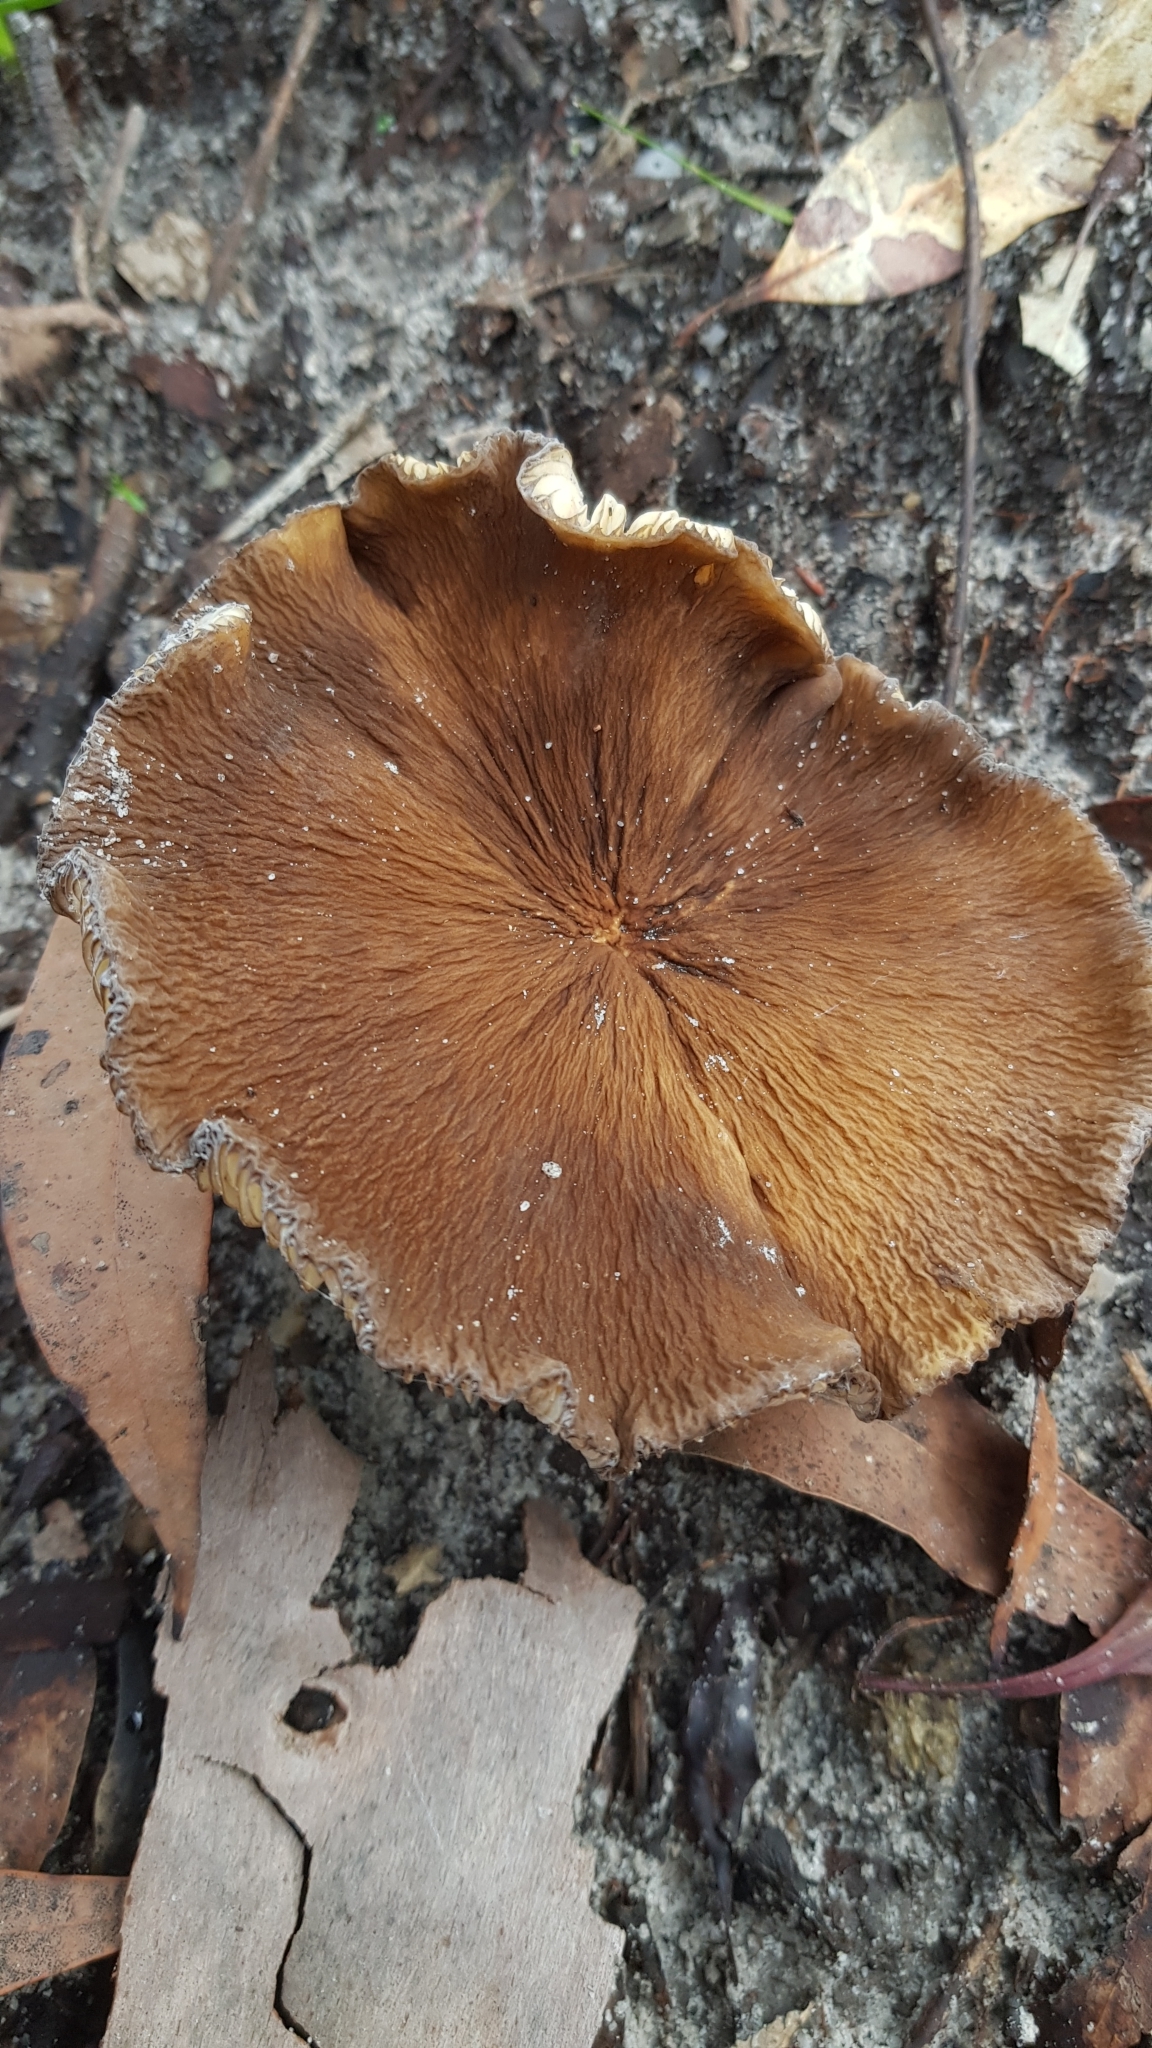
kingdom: Fungi
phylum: Basidiomycota
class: Agaricomycetes
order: Russulales
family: Russulaceae
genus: Lactifluus
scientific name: Lactifluus sepiaceus
